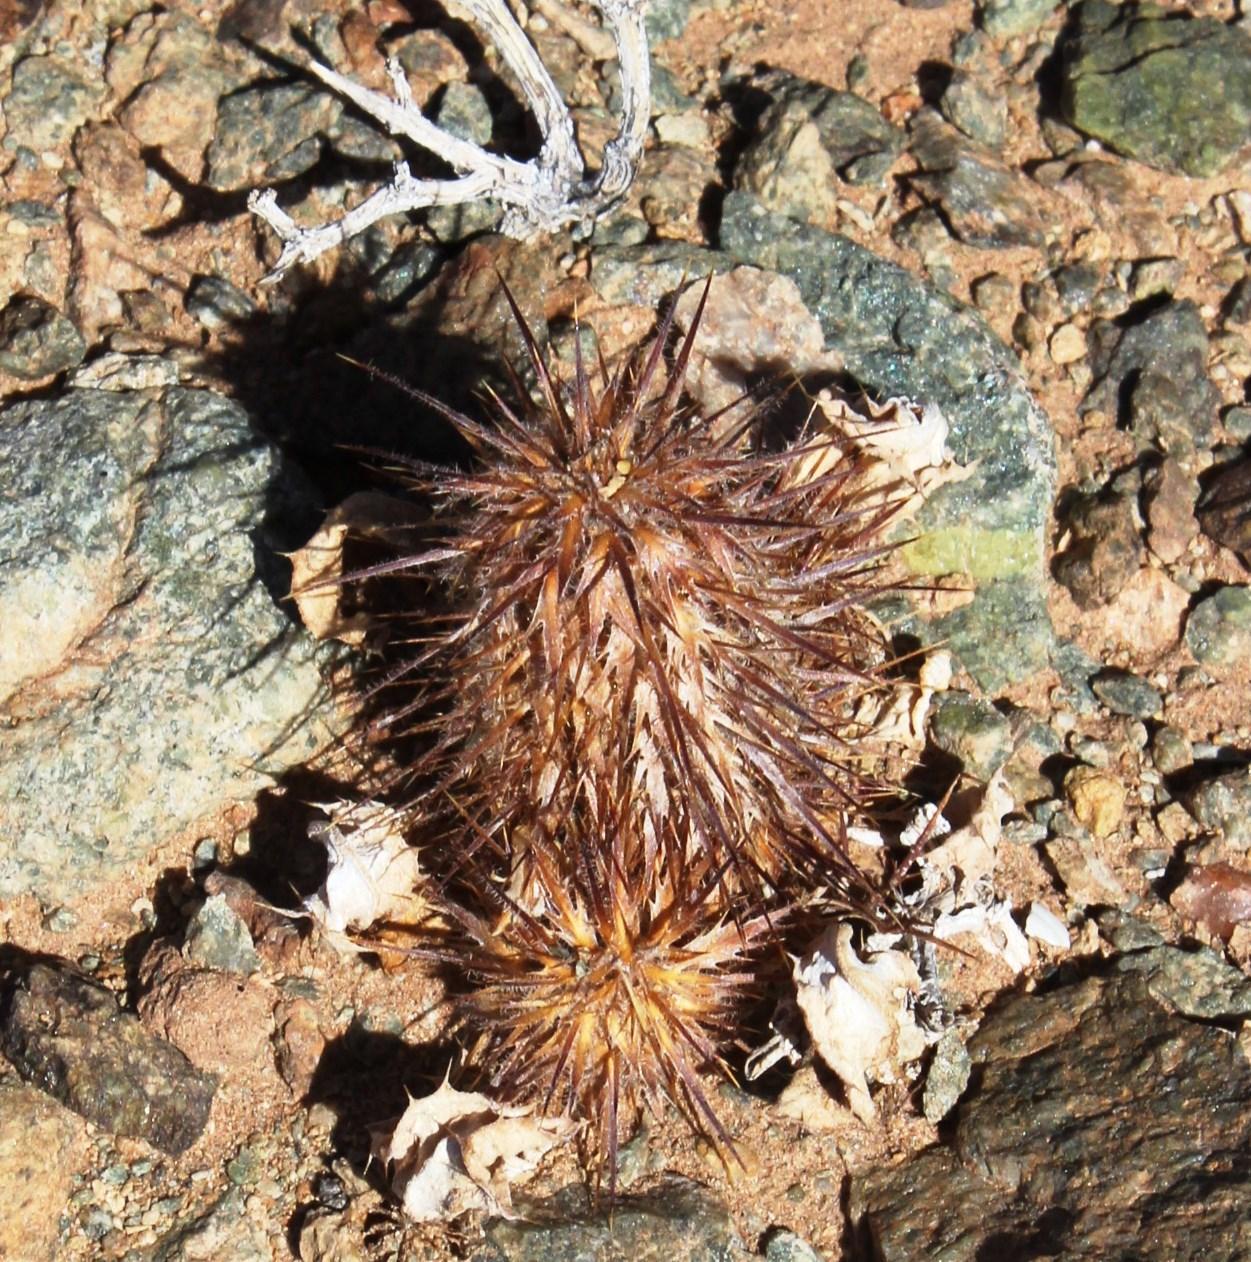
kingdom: Plantae
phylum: Tracheophyta
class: Magnoliopsida
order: Lamiales
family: Acanthaceae
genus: Acanthopsis
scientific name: Acanthopsis disperma
